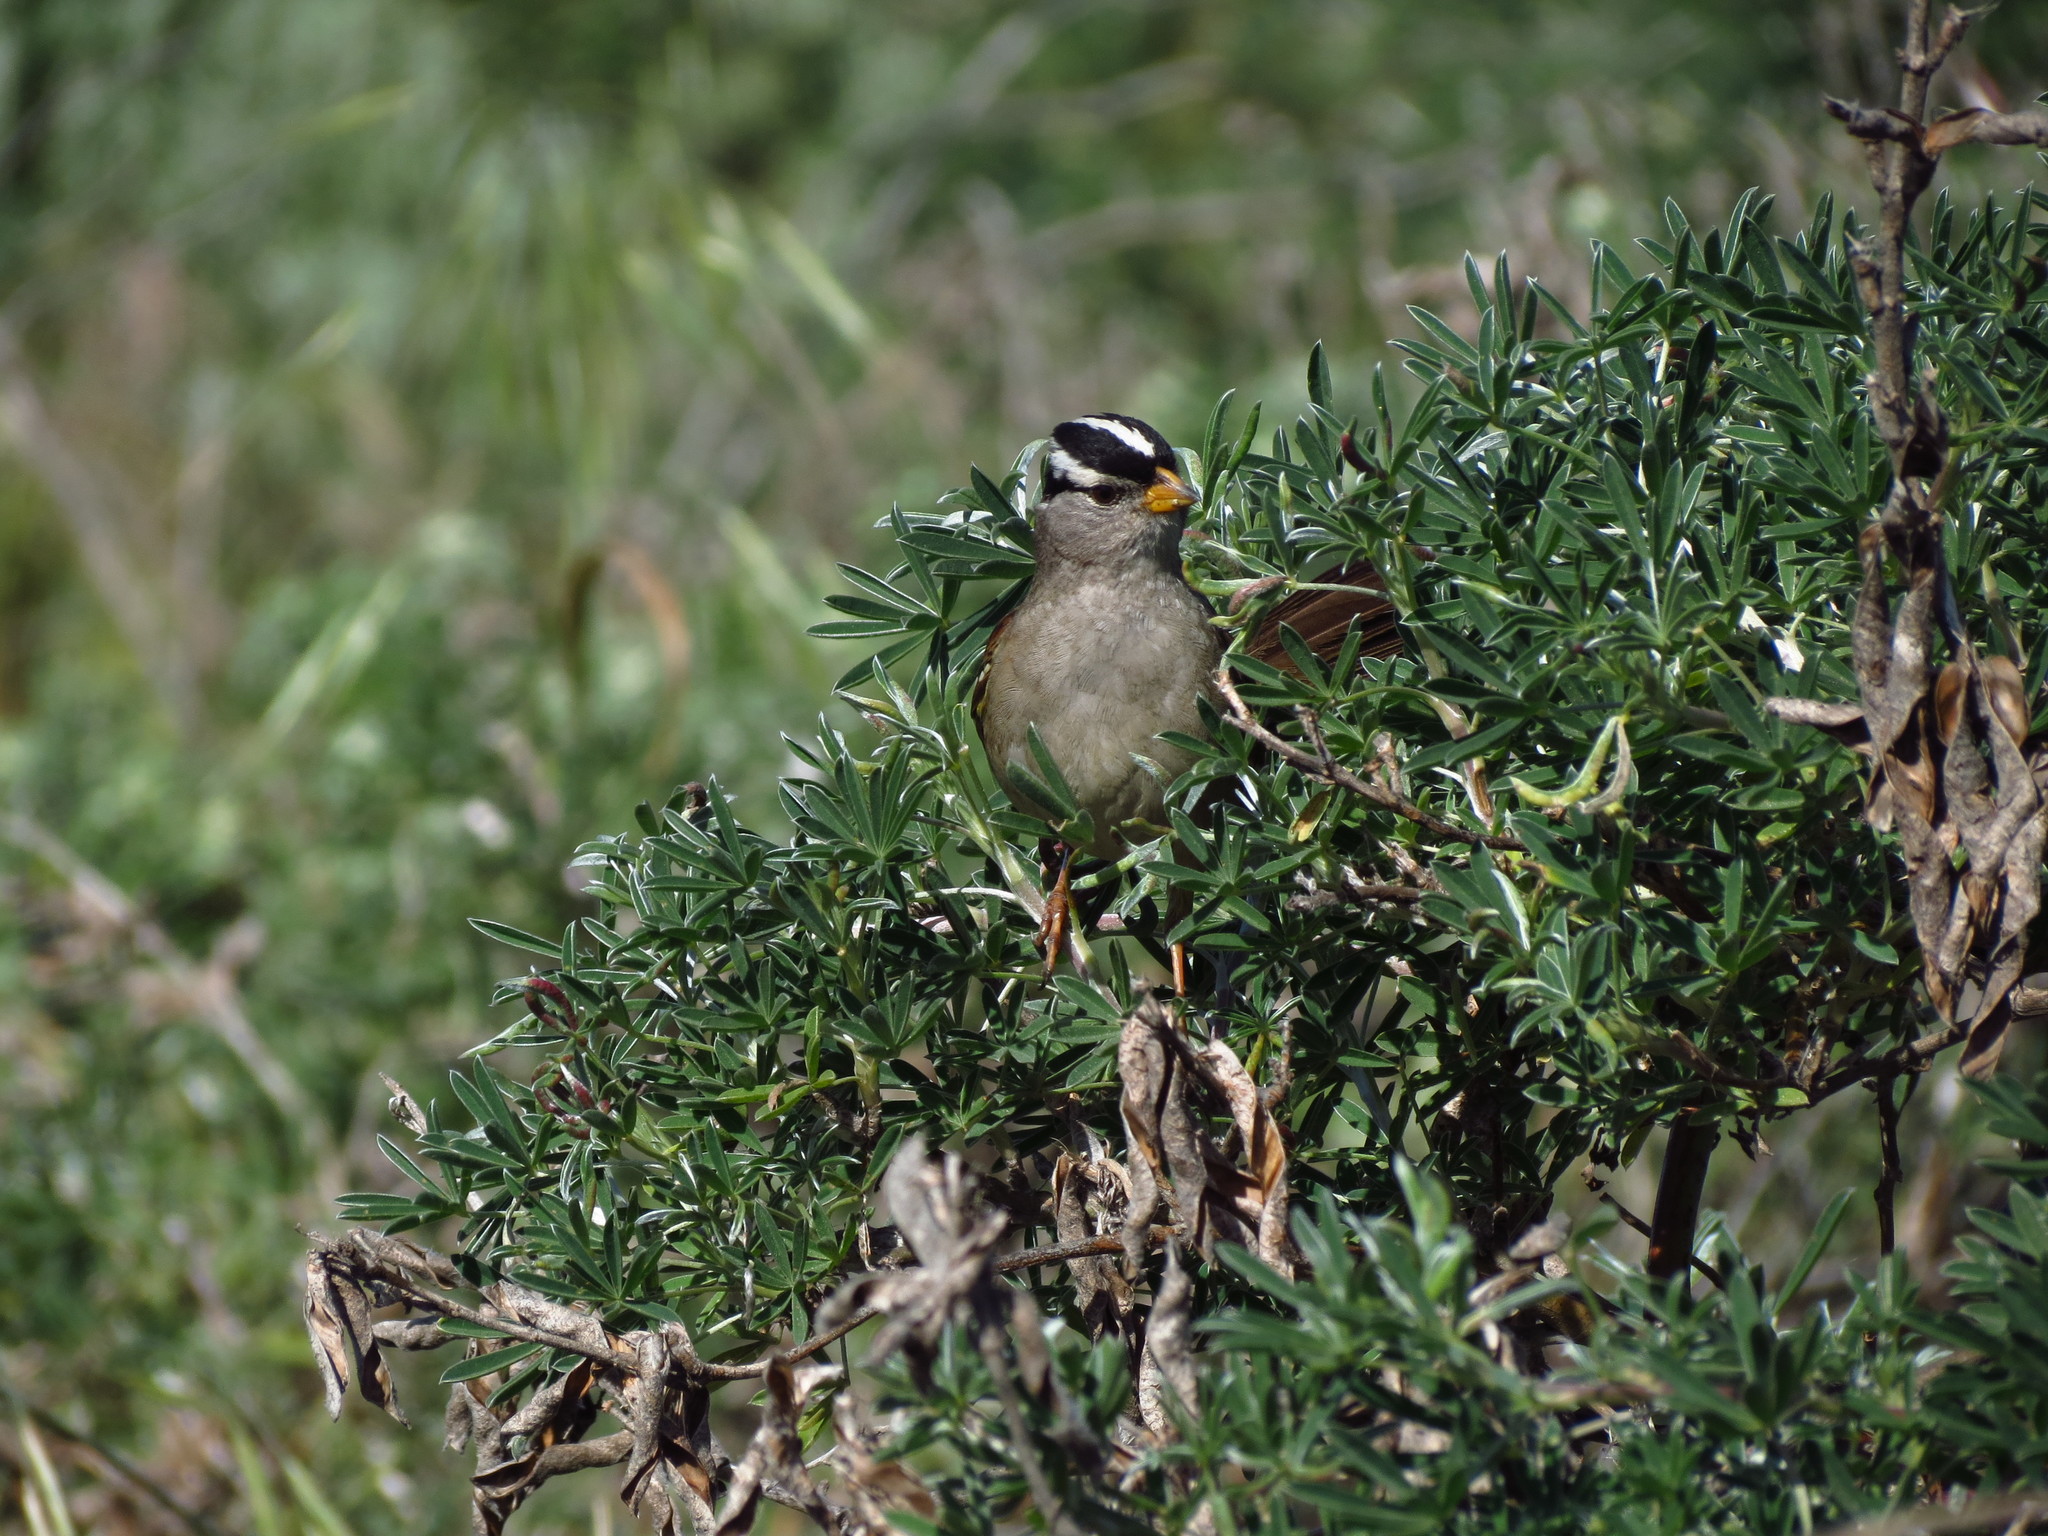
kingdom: Animalia
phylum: Chordata
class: Aves
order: Passeriformes
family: Passerellidae
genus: Zonotrichia
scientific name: Zonotrichia leucophrys
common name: White-crowned sparrow
